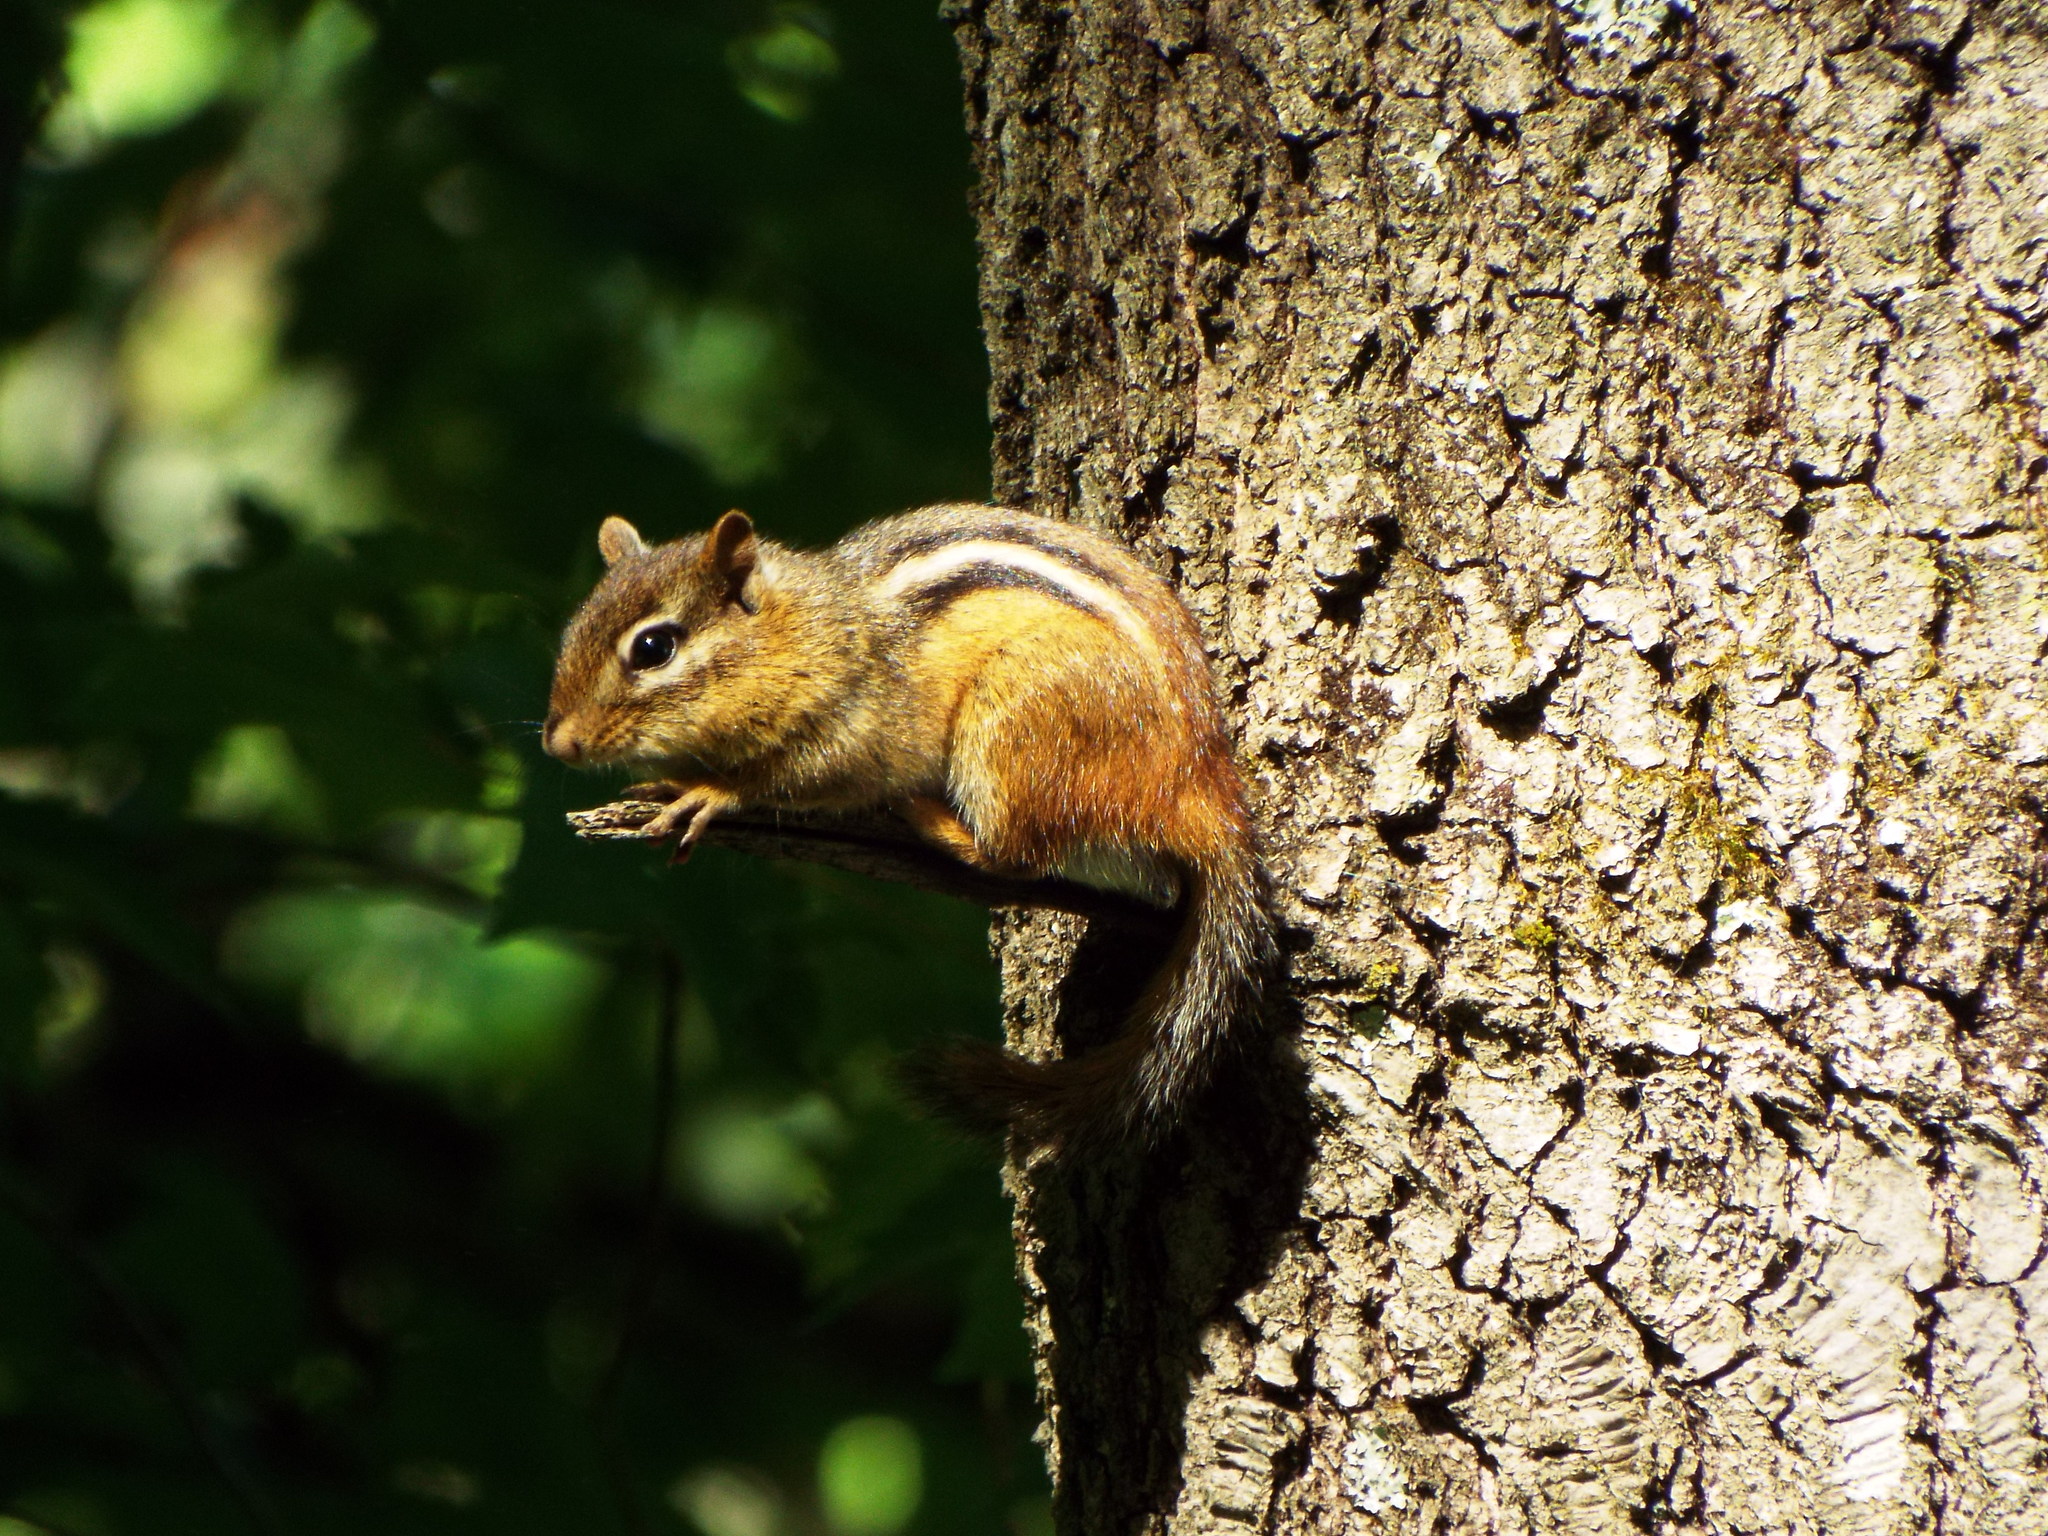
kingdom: Animalia
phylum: Chordata
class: Mammalia
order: Rodentia
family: Sciuridae
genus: Tamias
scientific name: Tamias striatus
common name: Eastern chipmunk
